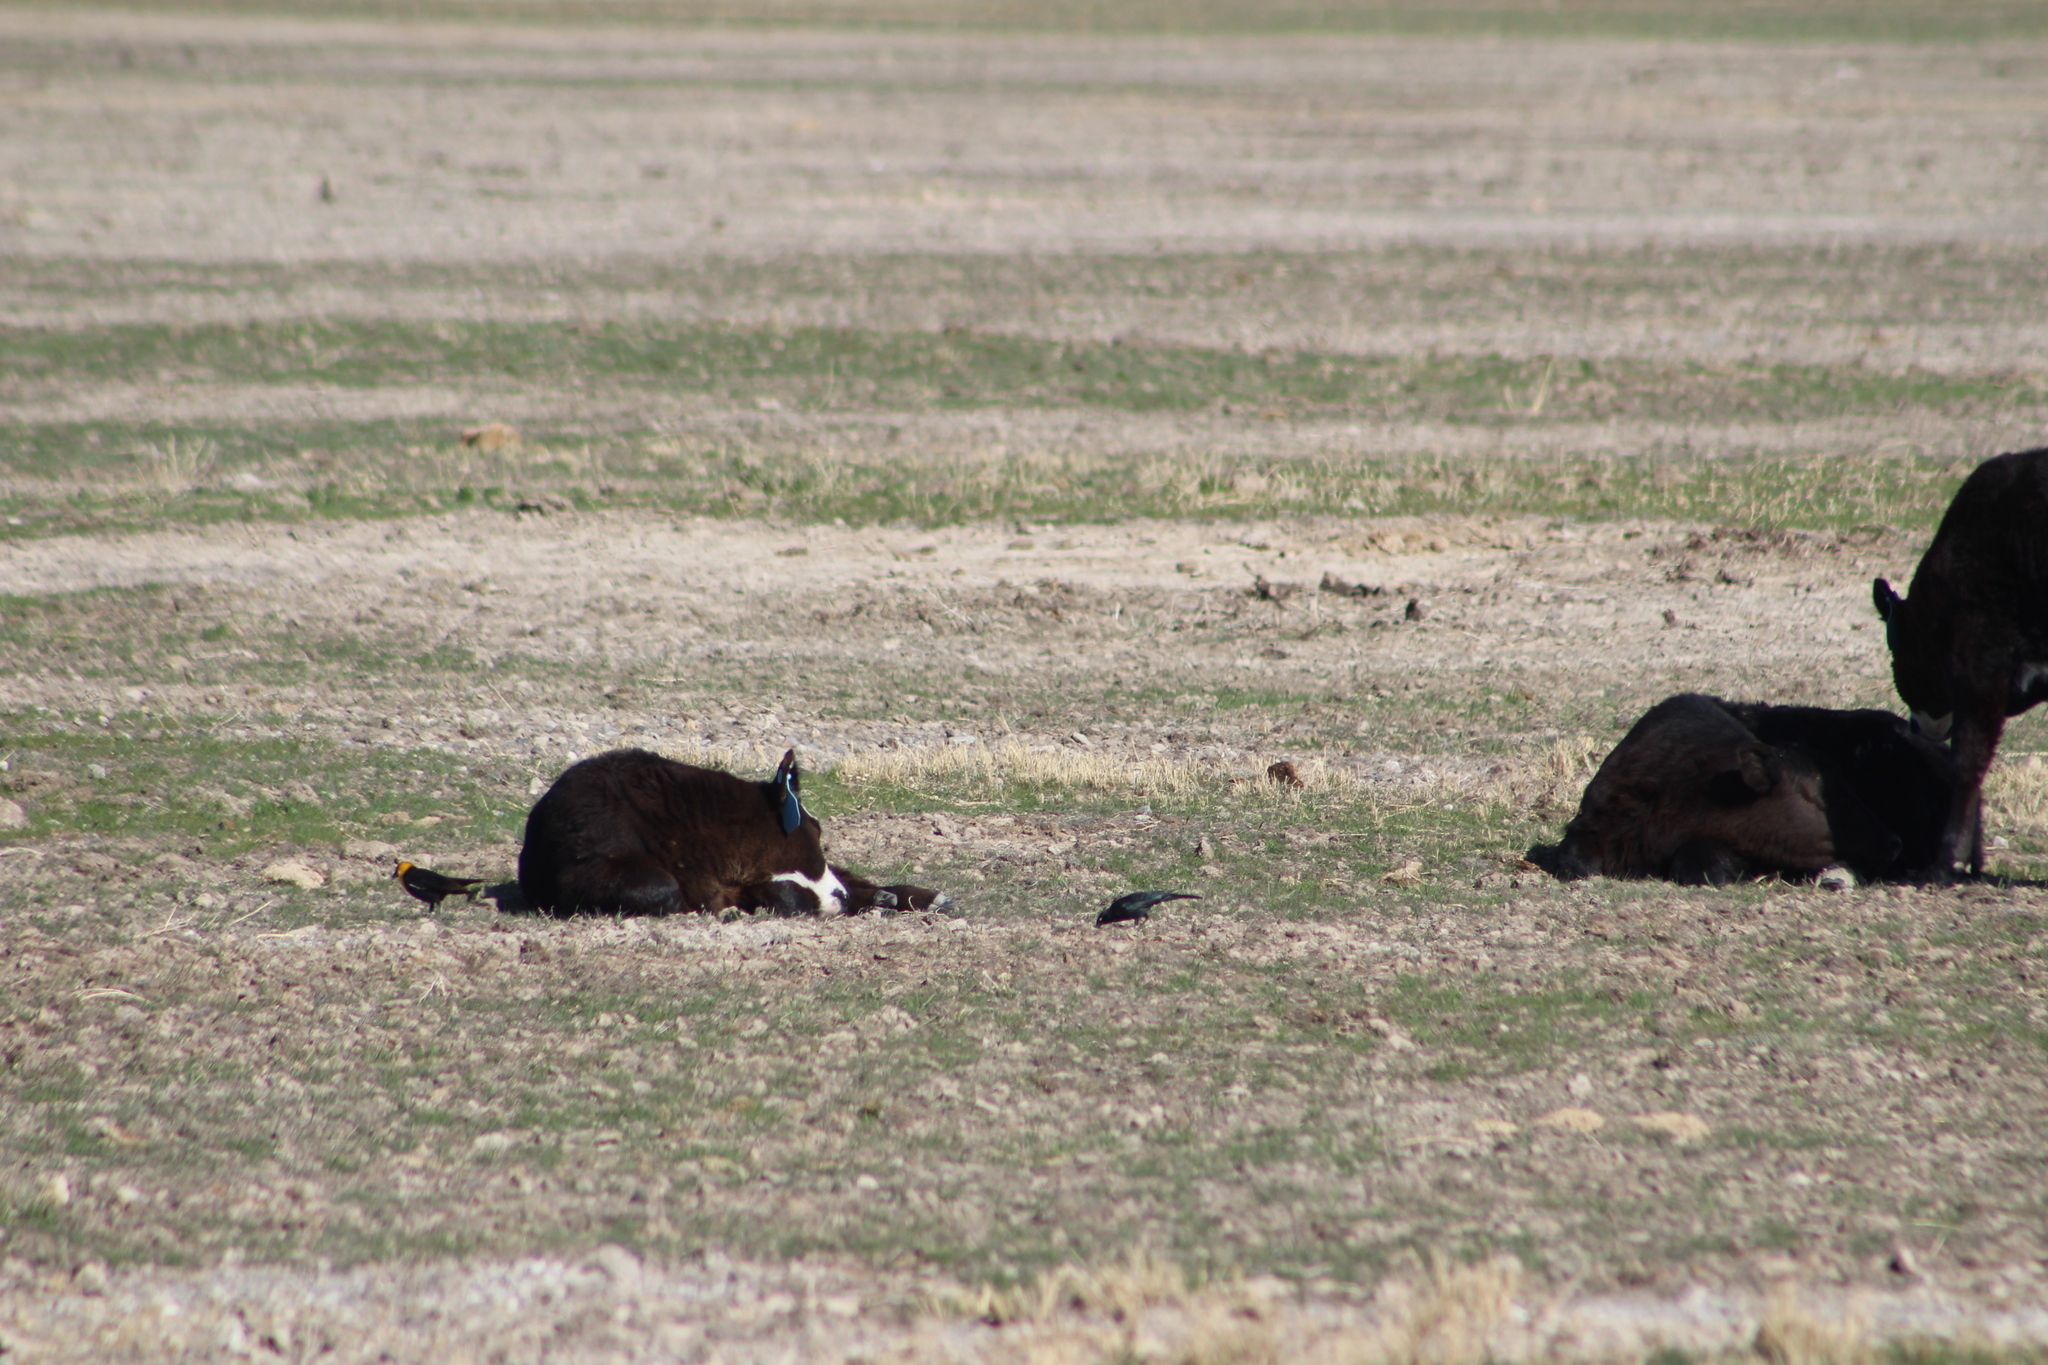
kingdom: Animalia
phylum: Chordata
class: Aves
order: Passeriformes
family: Icteridae
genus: Euphagus
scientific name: Euphagus cyanocephalus
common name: Brewer's blackbird
